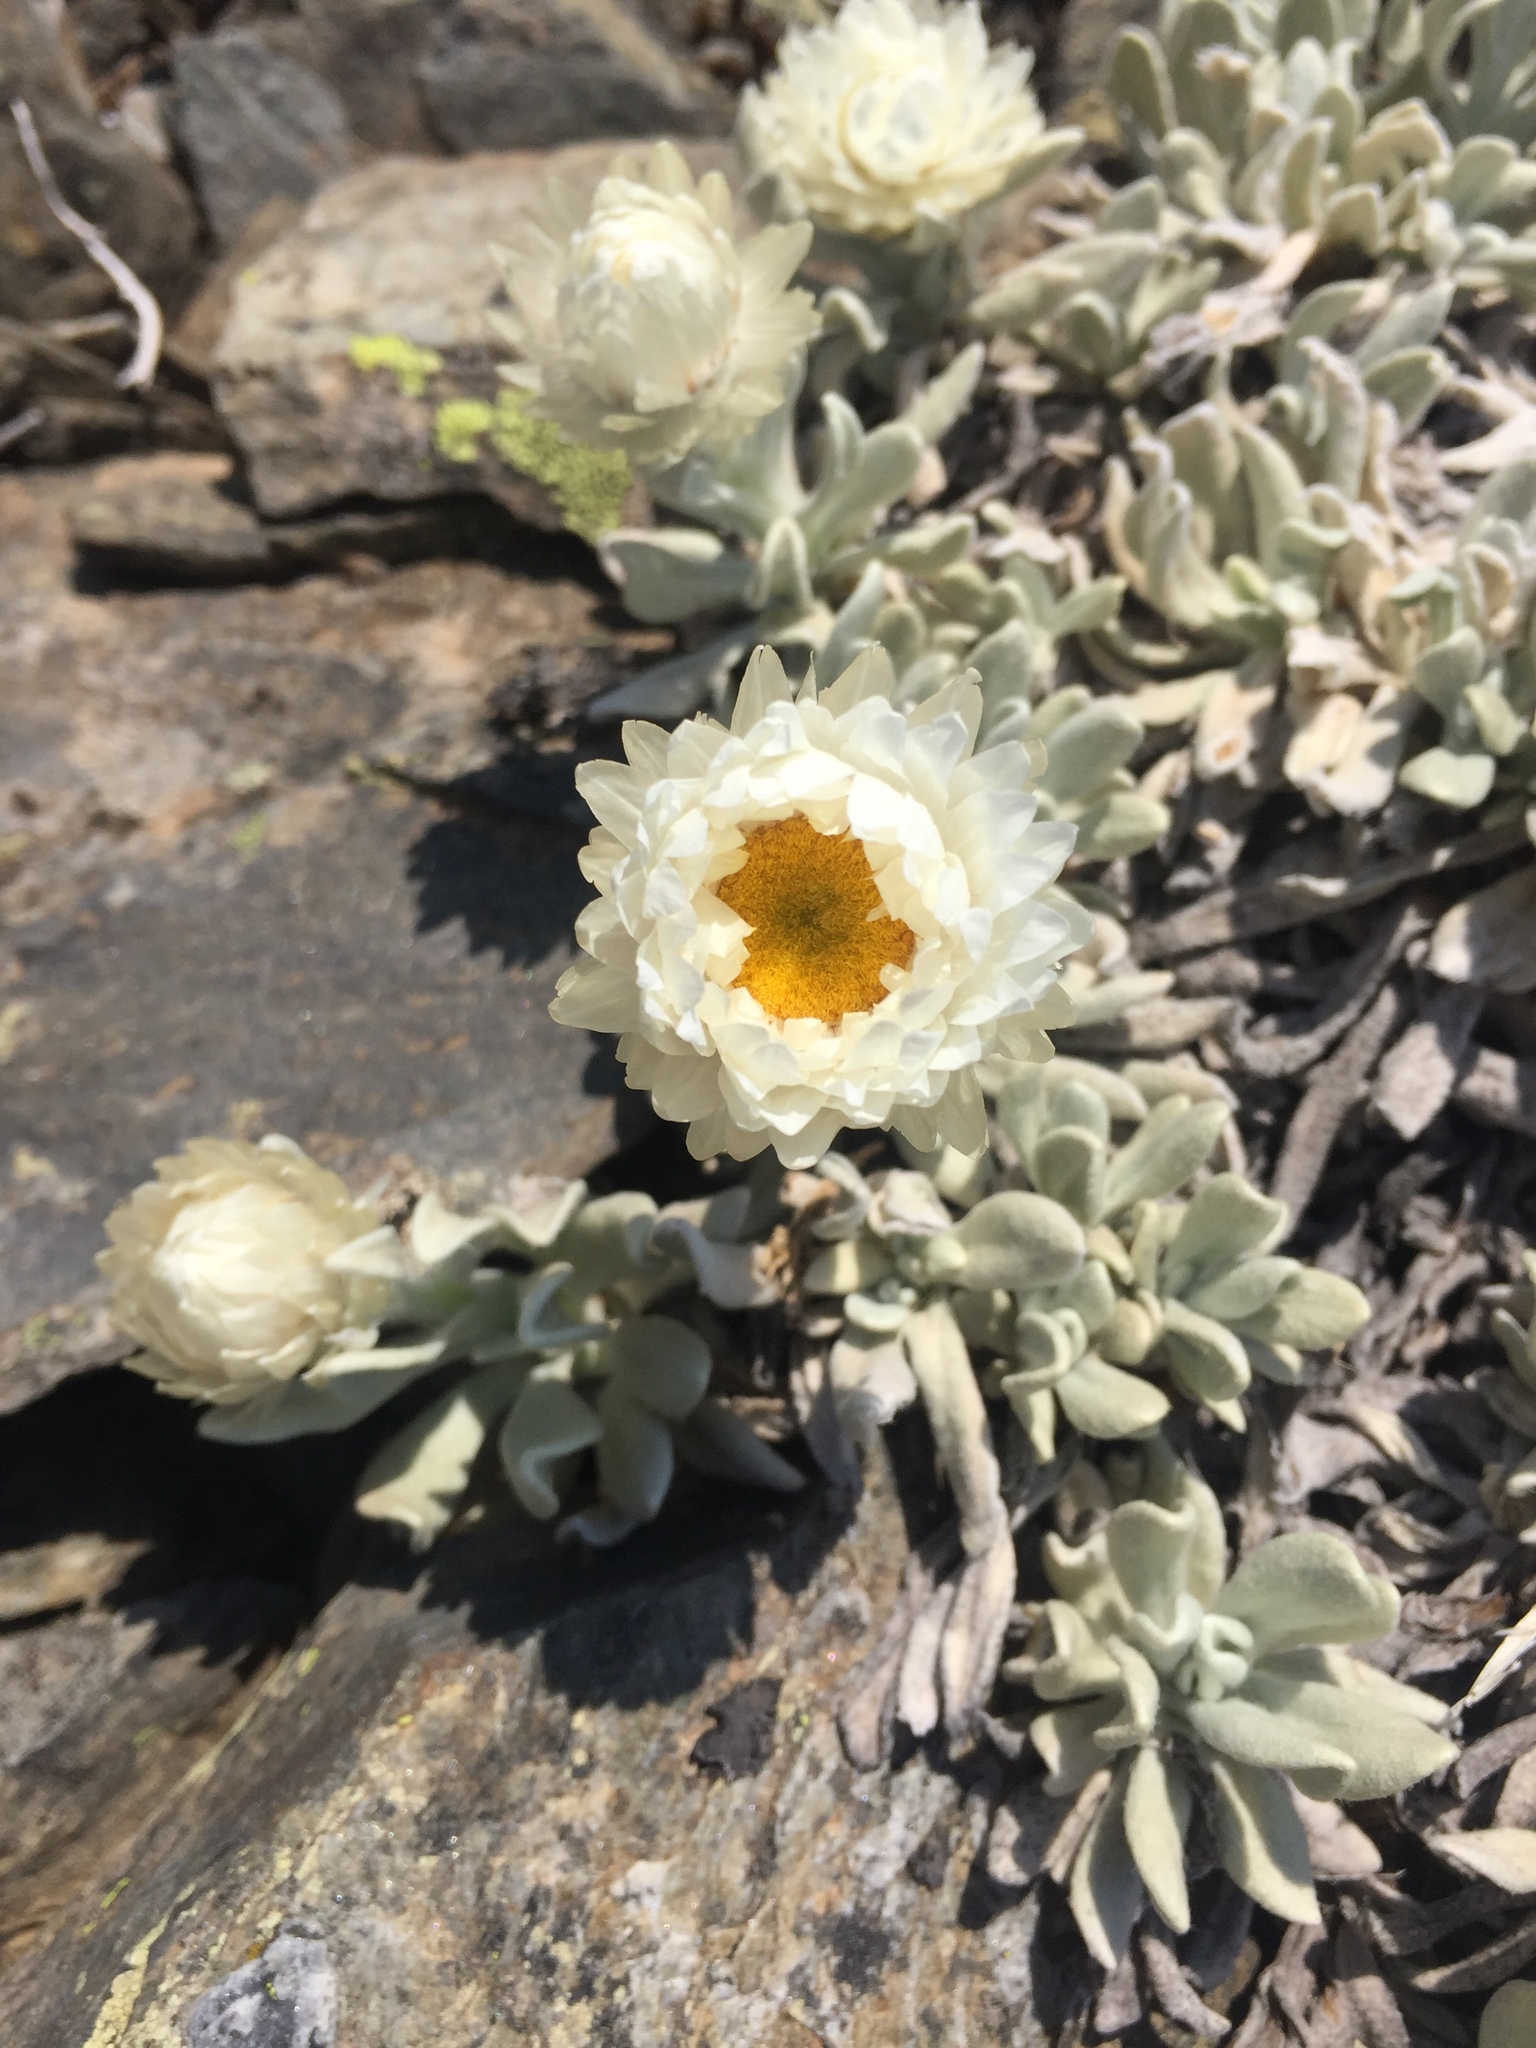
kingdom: Plantae
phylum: Tracheophyta
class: Magnoliopsida
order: Asterales
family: Asteraceae
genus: Leucochrysum
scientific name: Leucochrysum alpinum
